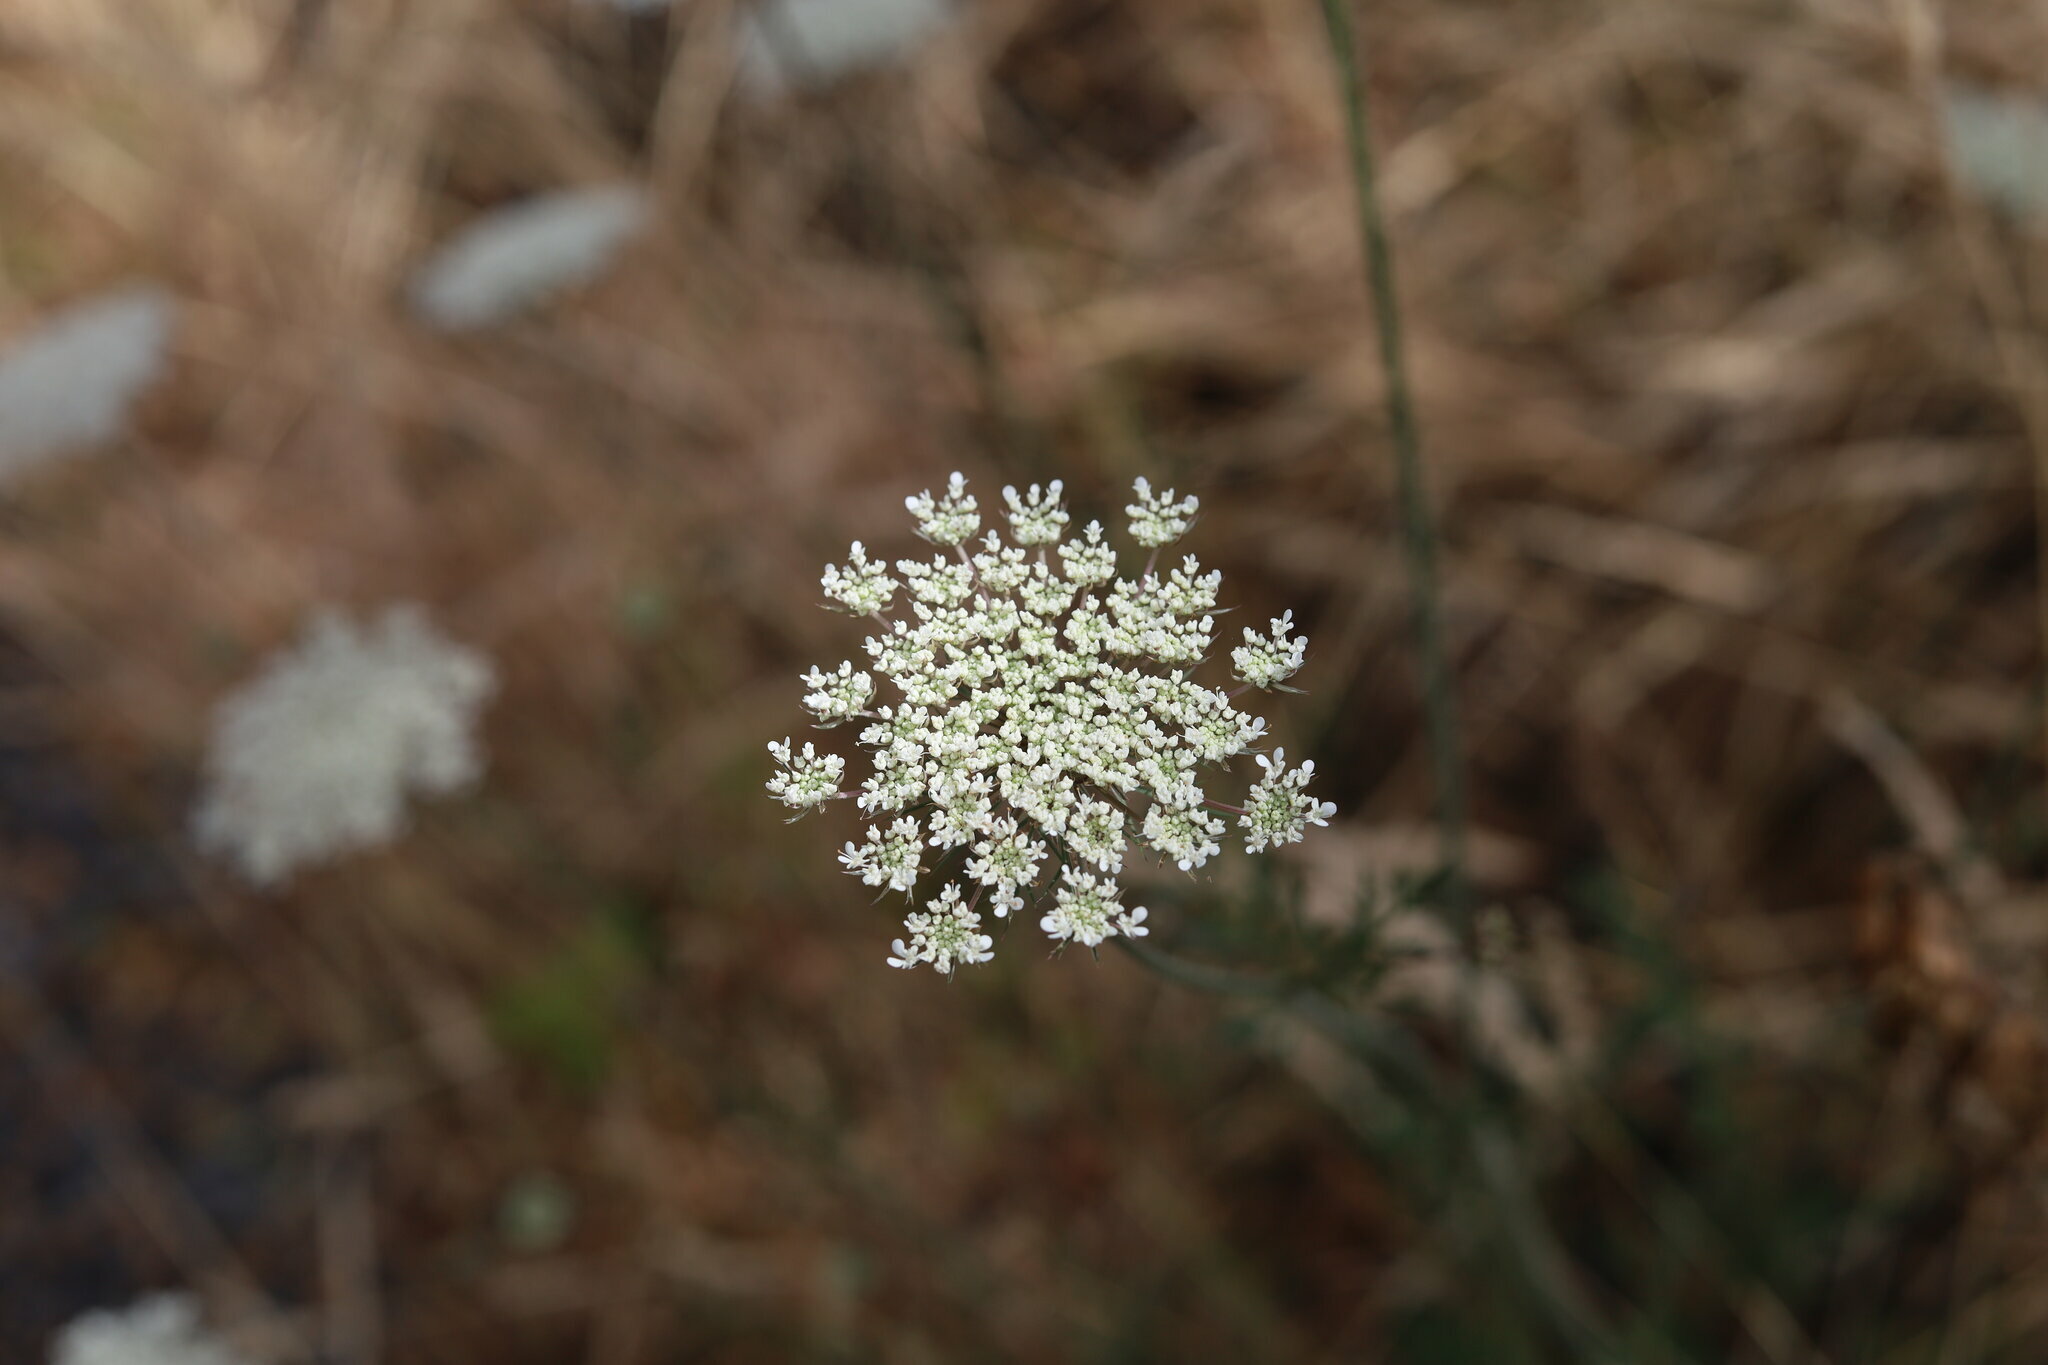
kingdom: Plantae
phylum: Tracheophyta
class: Magnoliopsida
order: Apiales
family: Apiaceae
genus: Daucus
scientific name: Daucus carota
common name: Wild carrot
